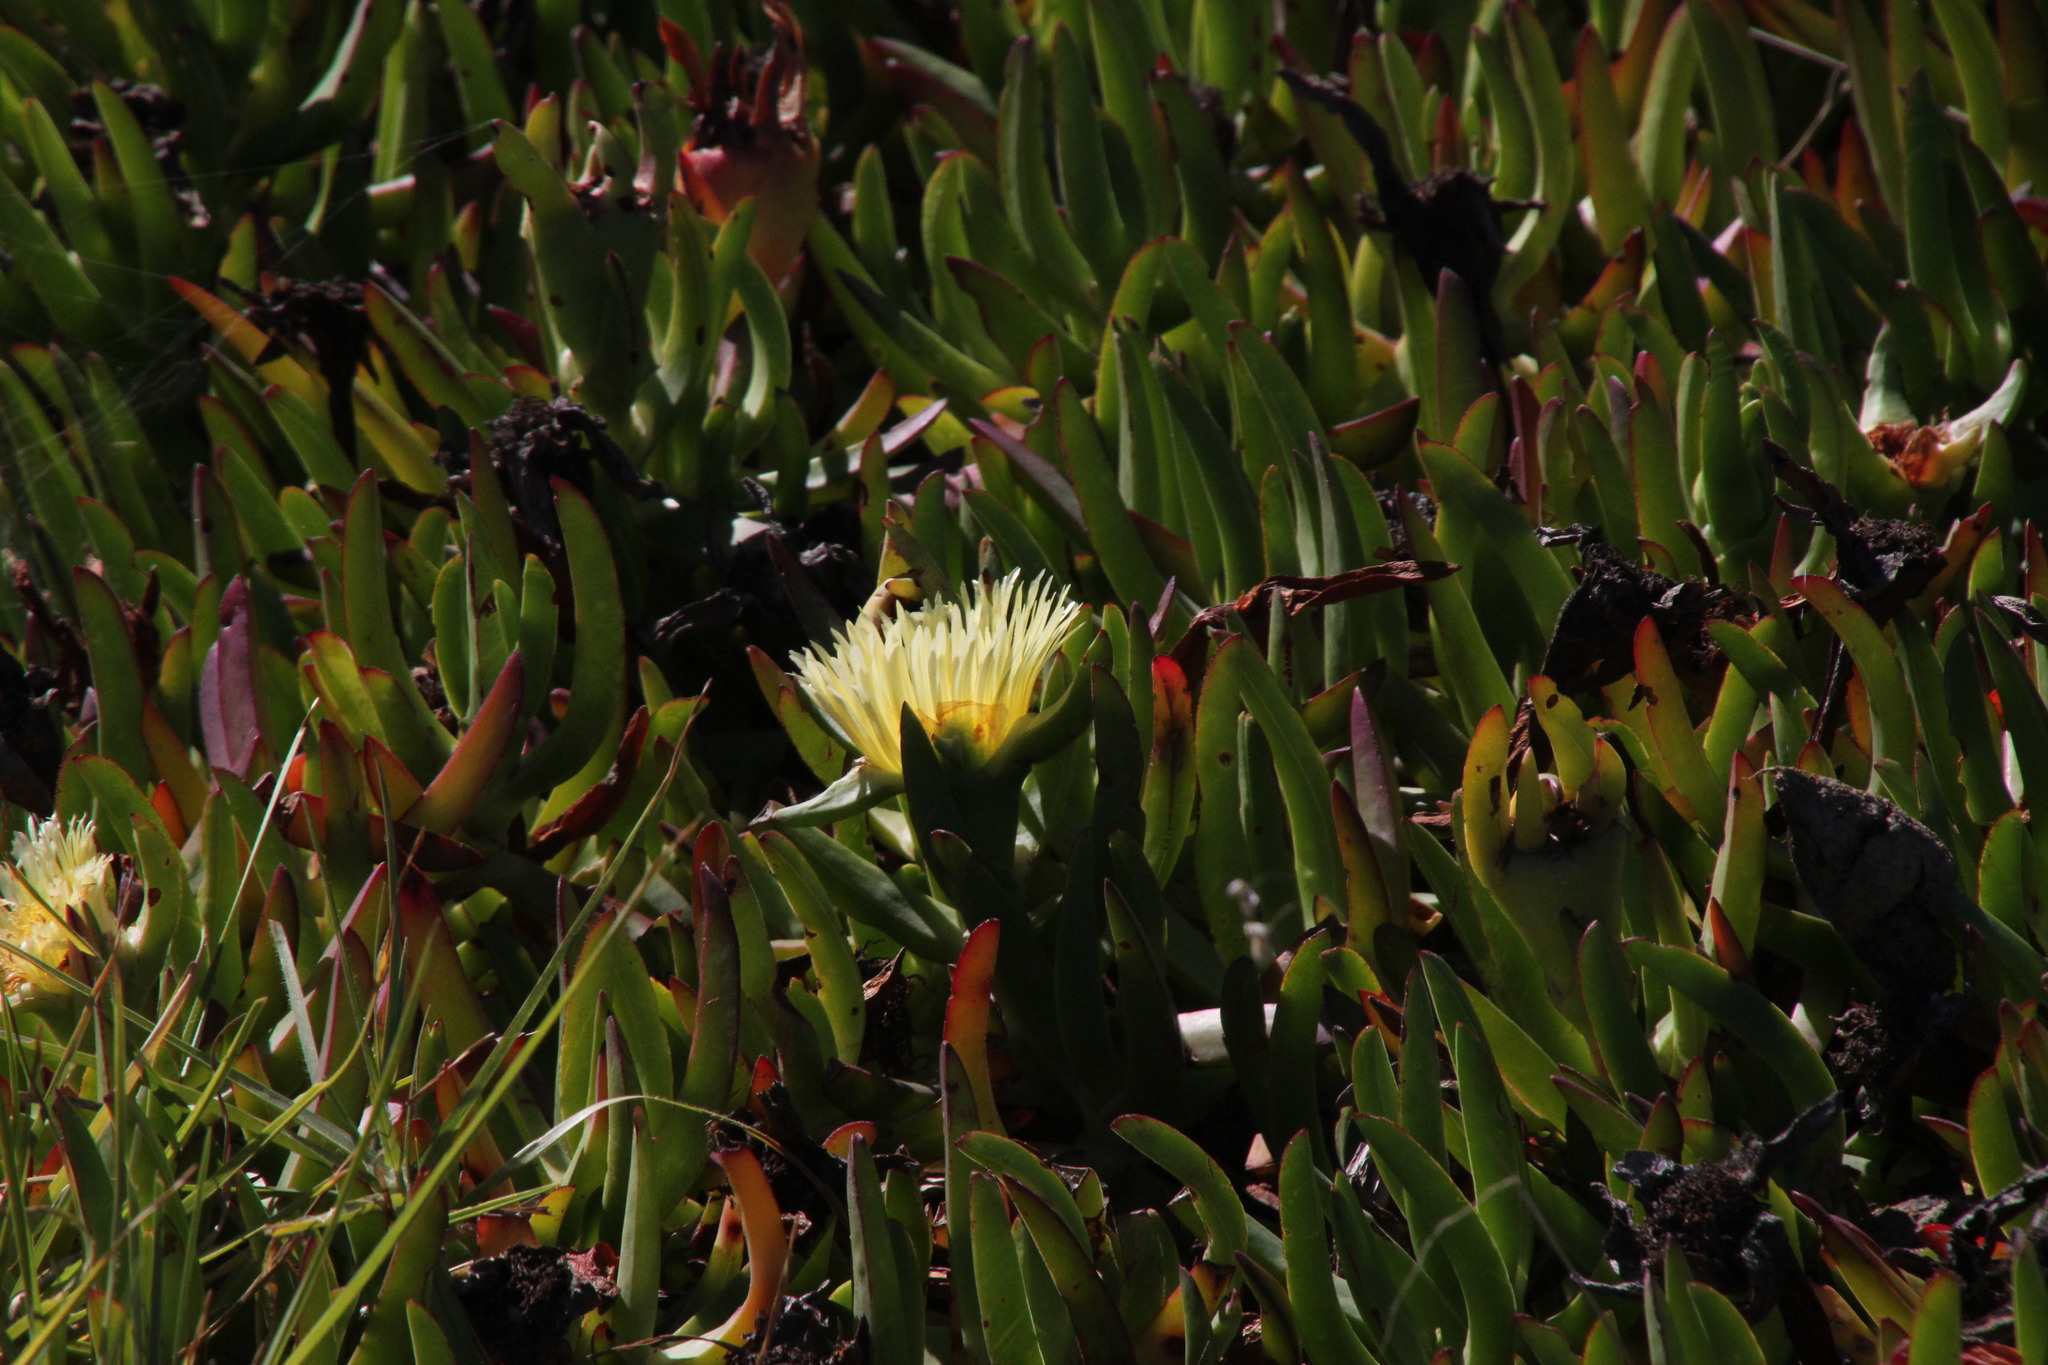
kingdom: Plantae
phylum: Tracheophyta
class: Magnoliopsida
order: Caryophyllales
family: Aizoaceae
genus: Carpobrotus
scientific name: Carpobrotus edulis
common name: Hottentot-fig
